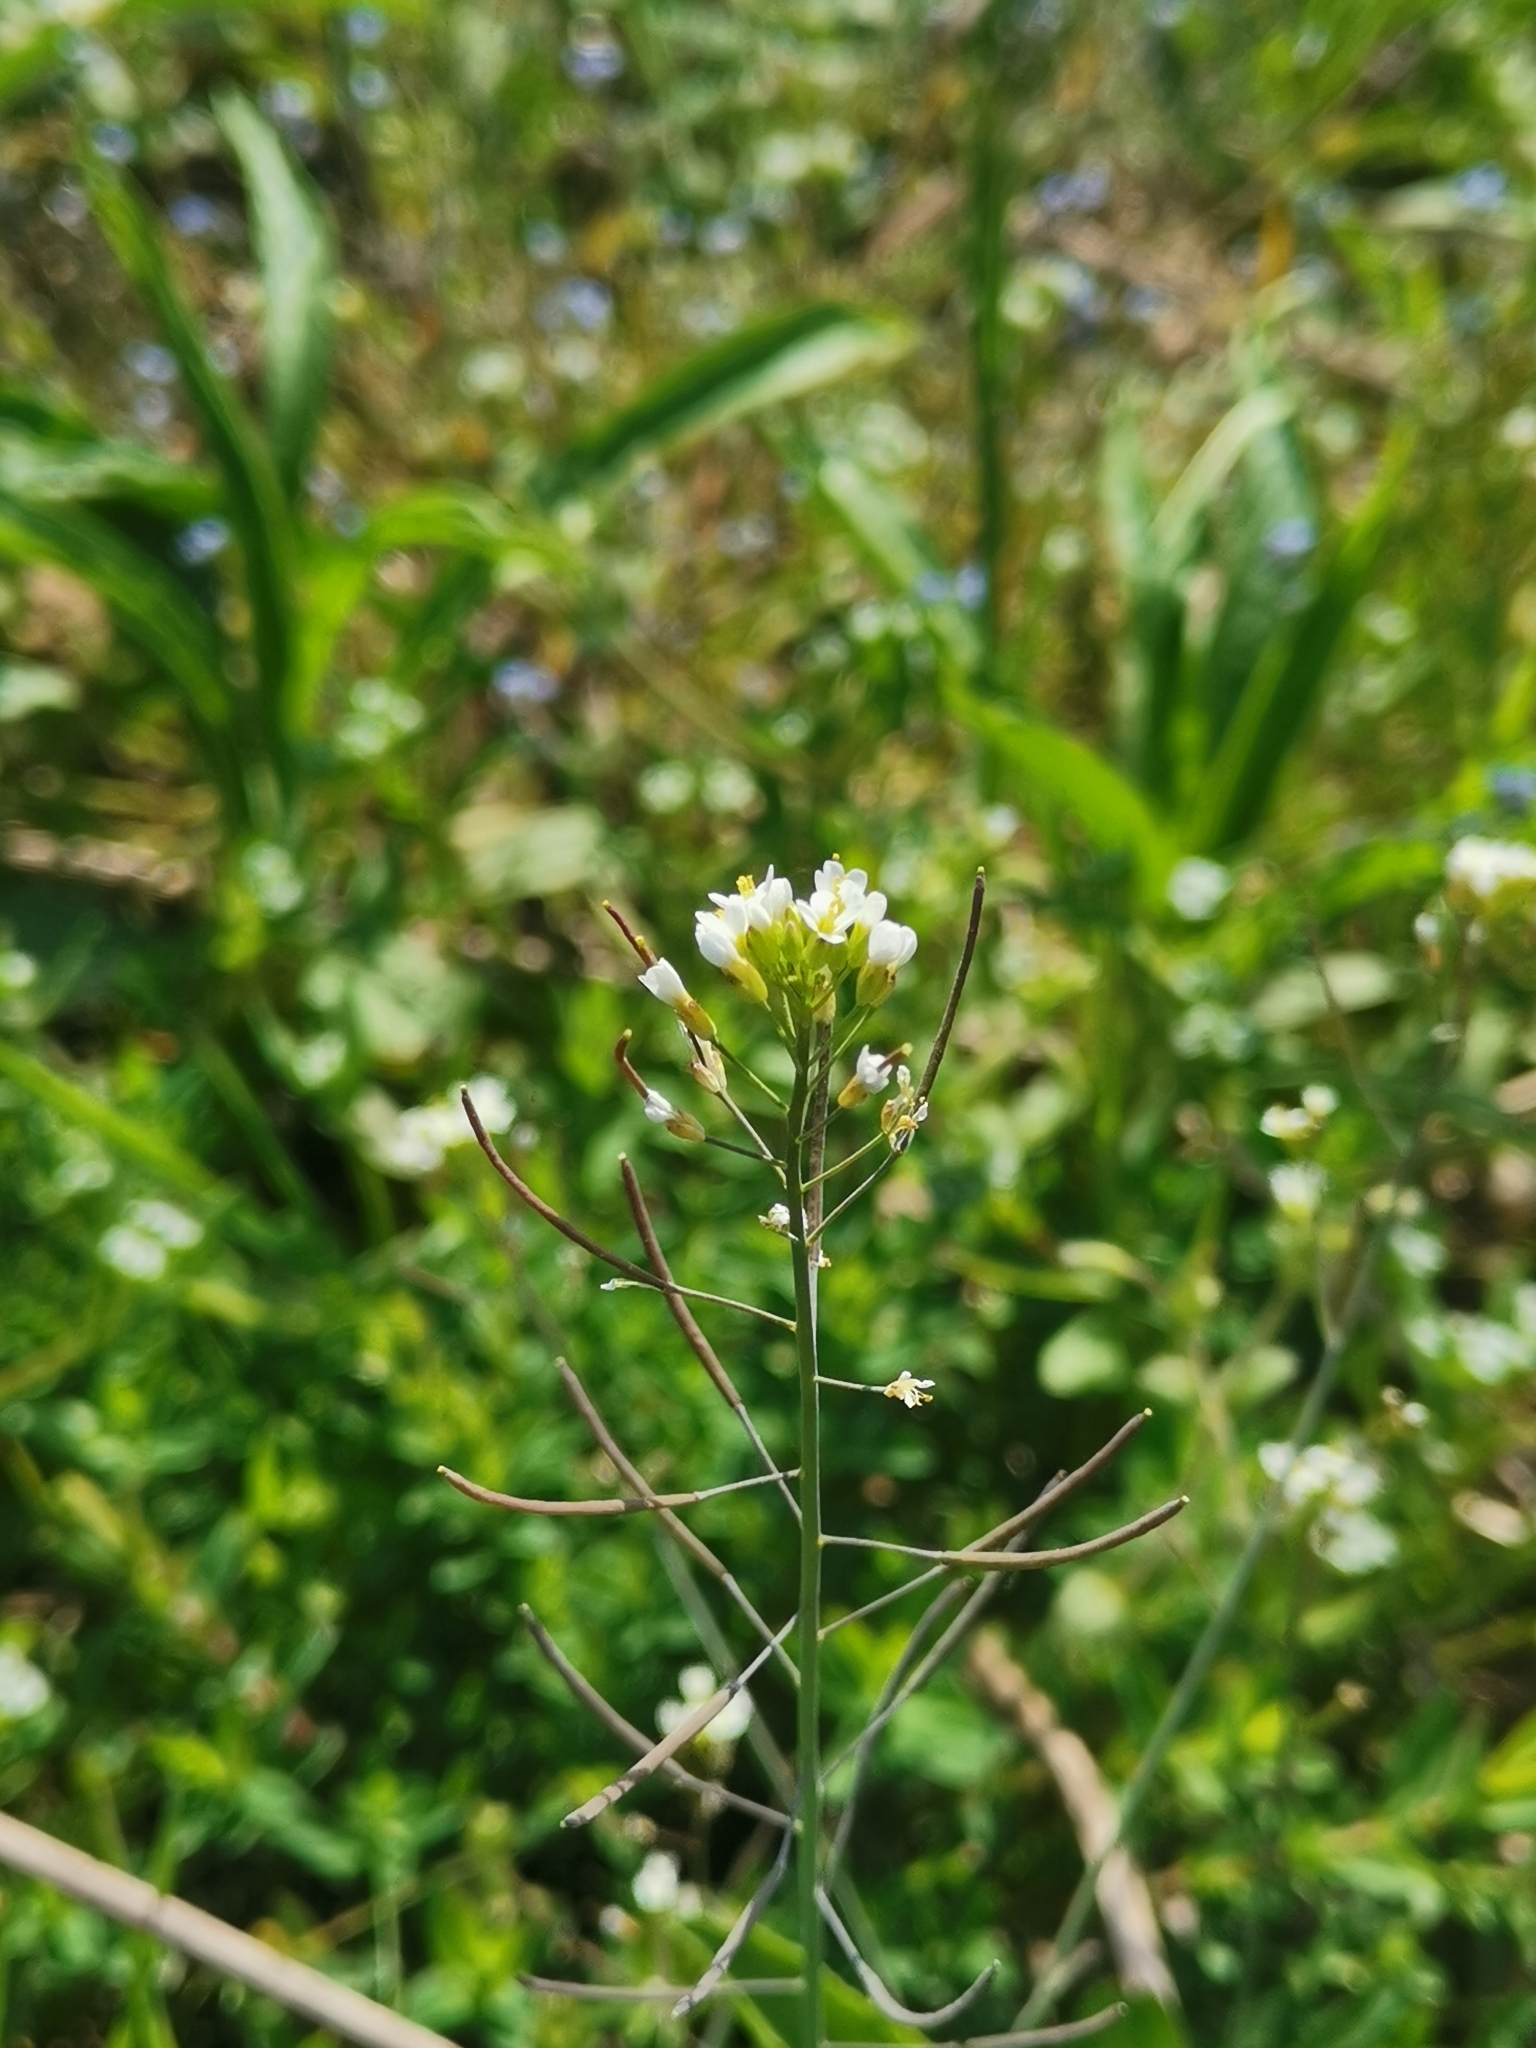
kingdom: Plantae
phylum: Tracheophyta
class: Magnoliopsida
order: Brassicales
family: Brassicaceae
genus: Arabidopsis
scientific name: Arabidopsis thaliana
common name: Thale cress
